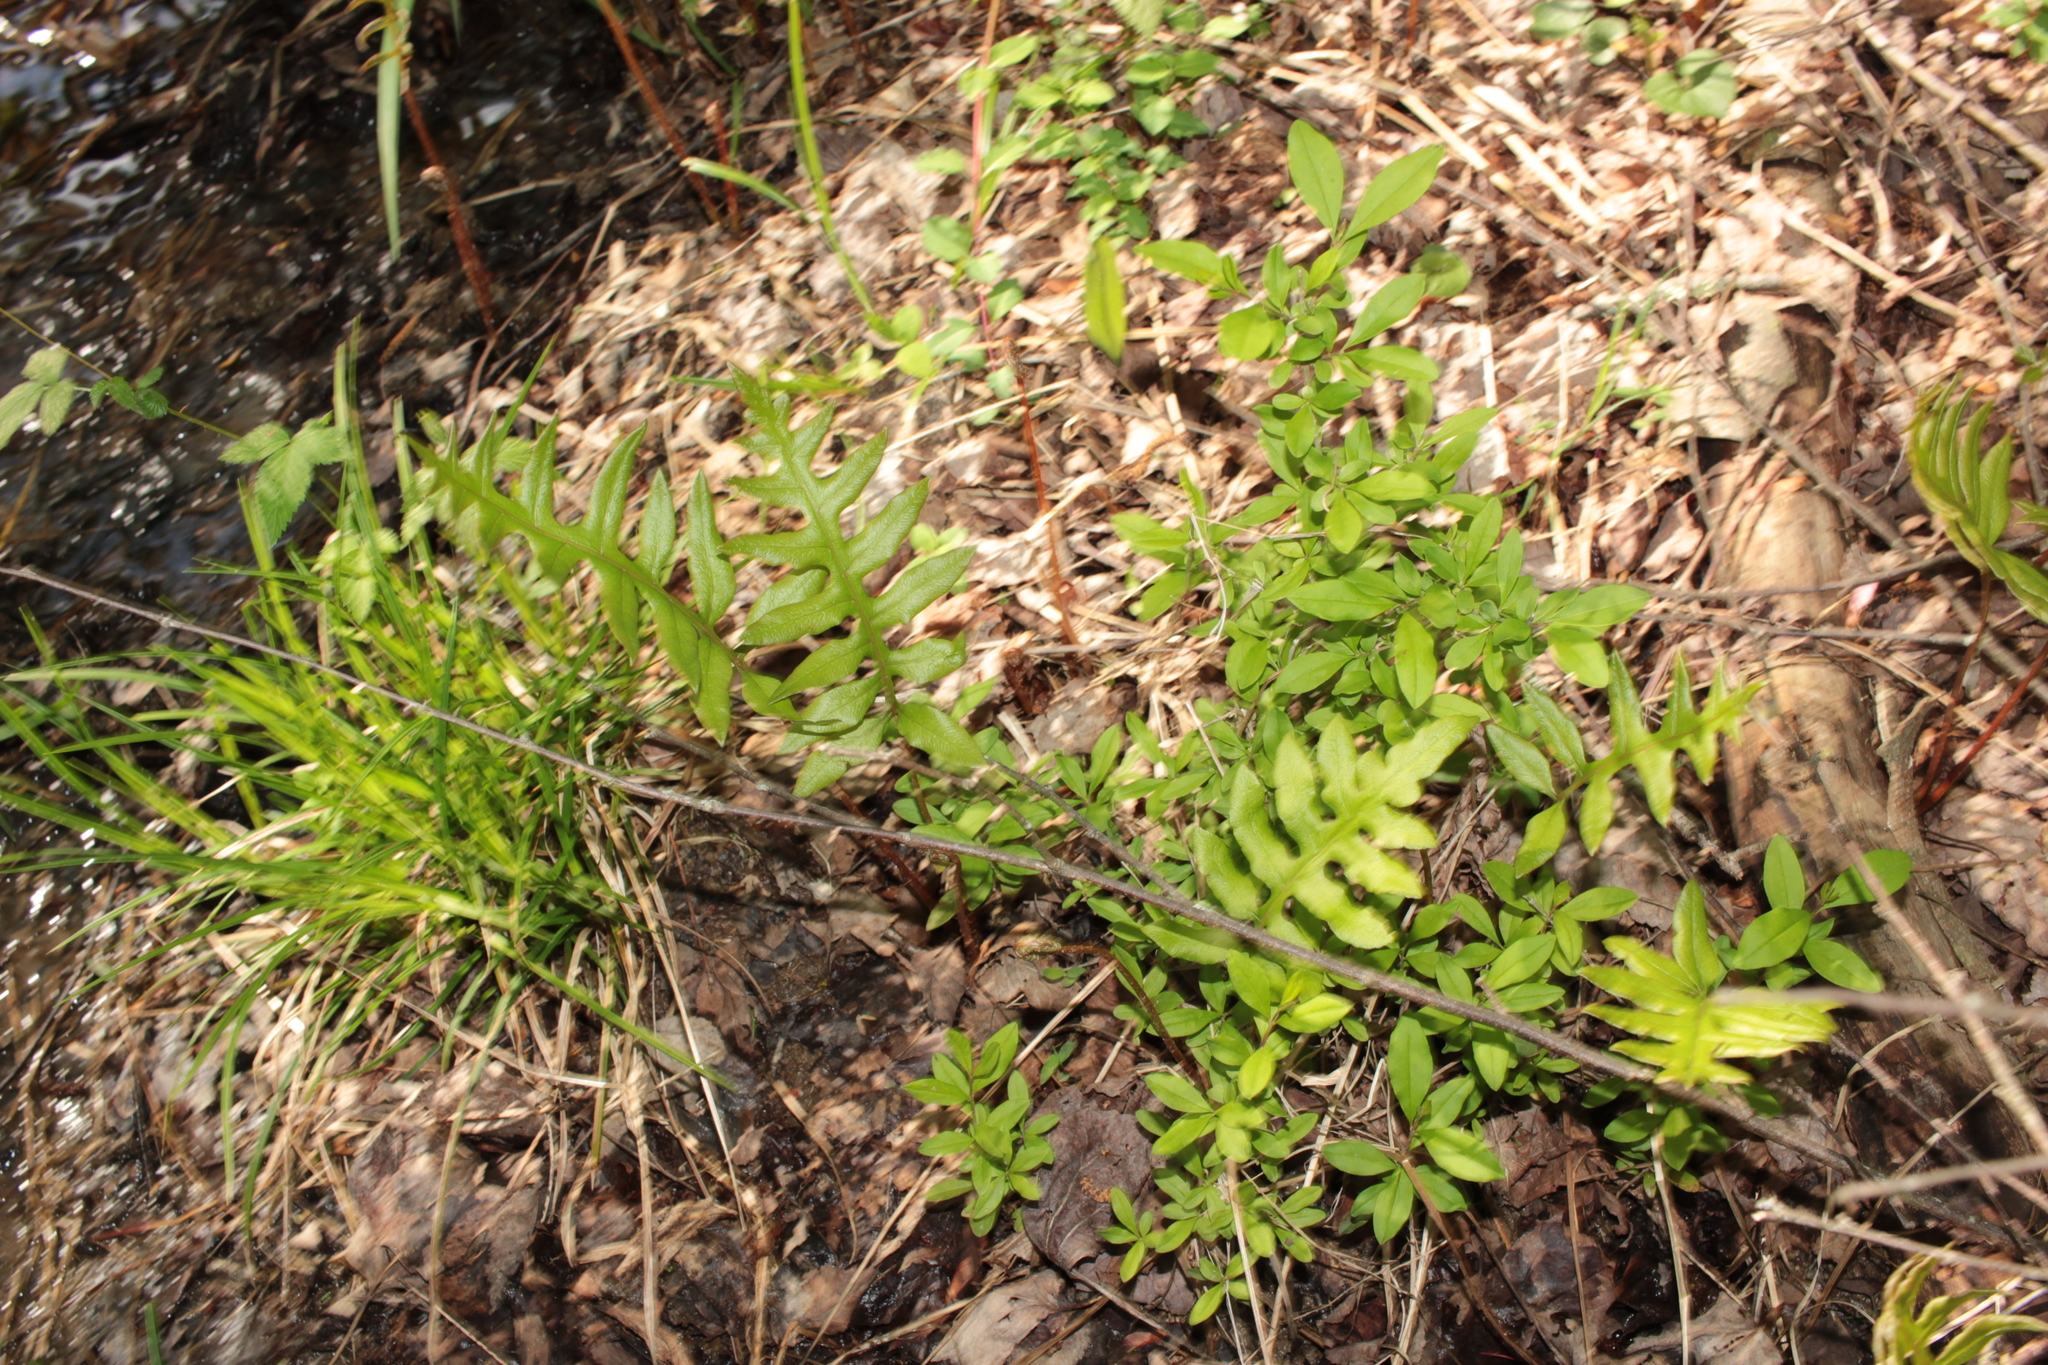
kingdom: Plantae
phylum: Tracheophyta
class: Polypodiopsida
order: Polypodiales
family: Blechnaceae
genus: Lorinseria
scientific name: Lorinseria areolata
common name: Dwarf chain fern
